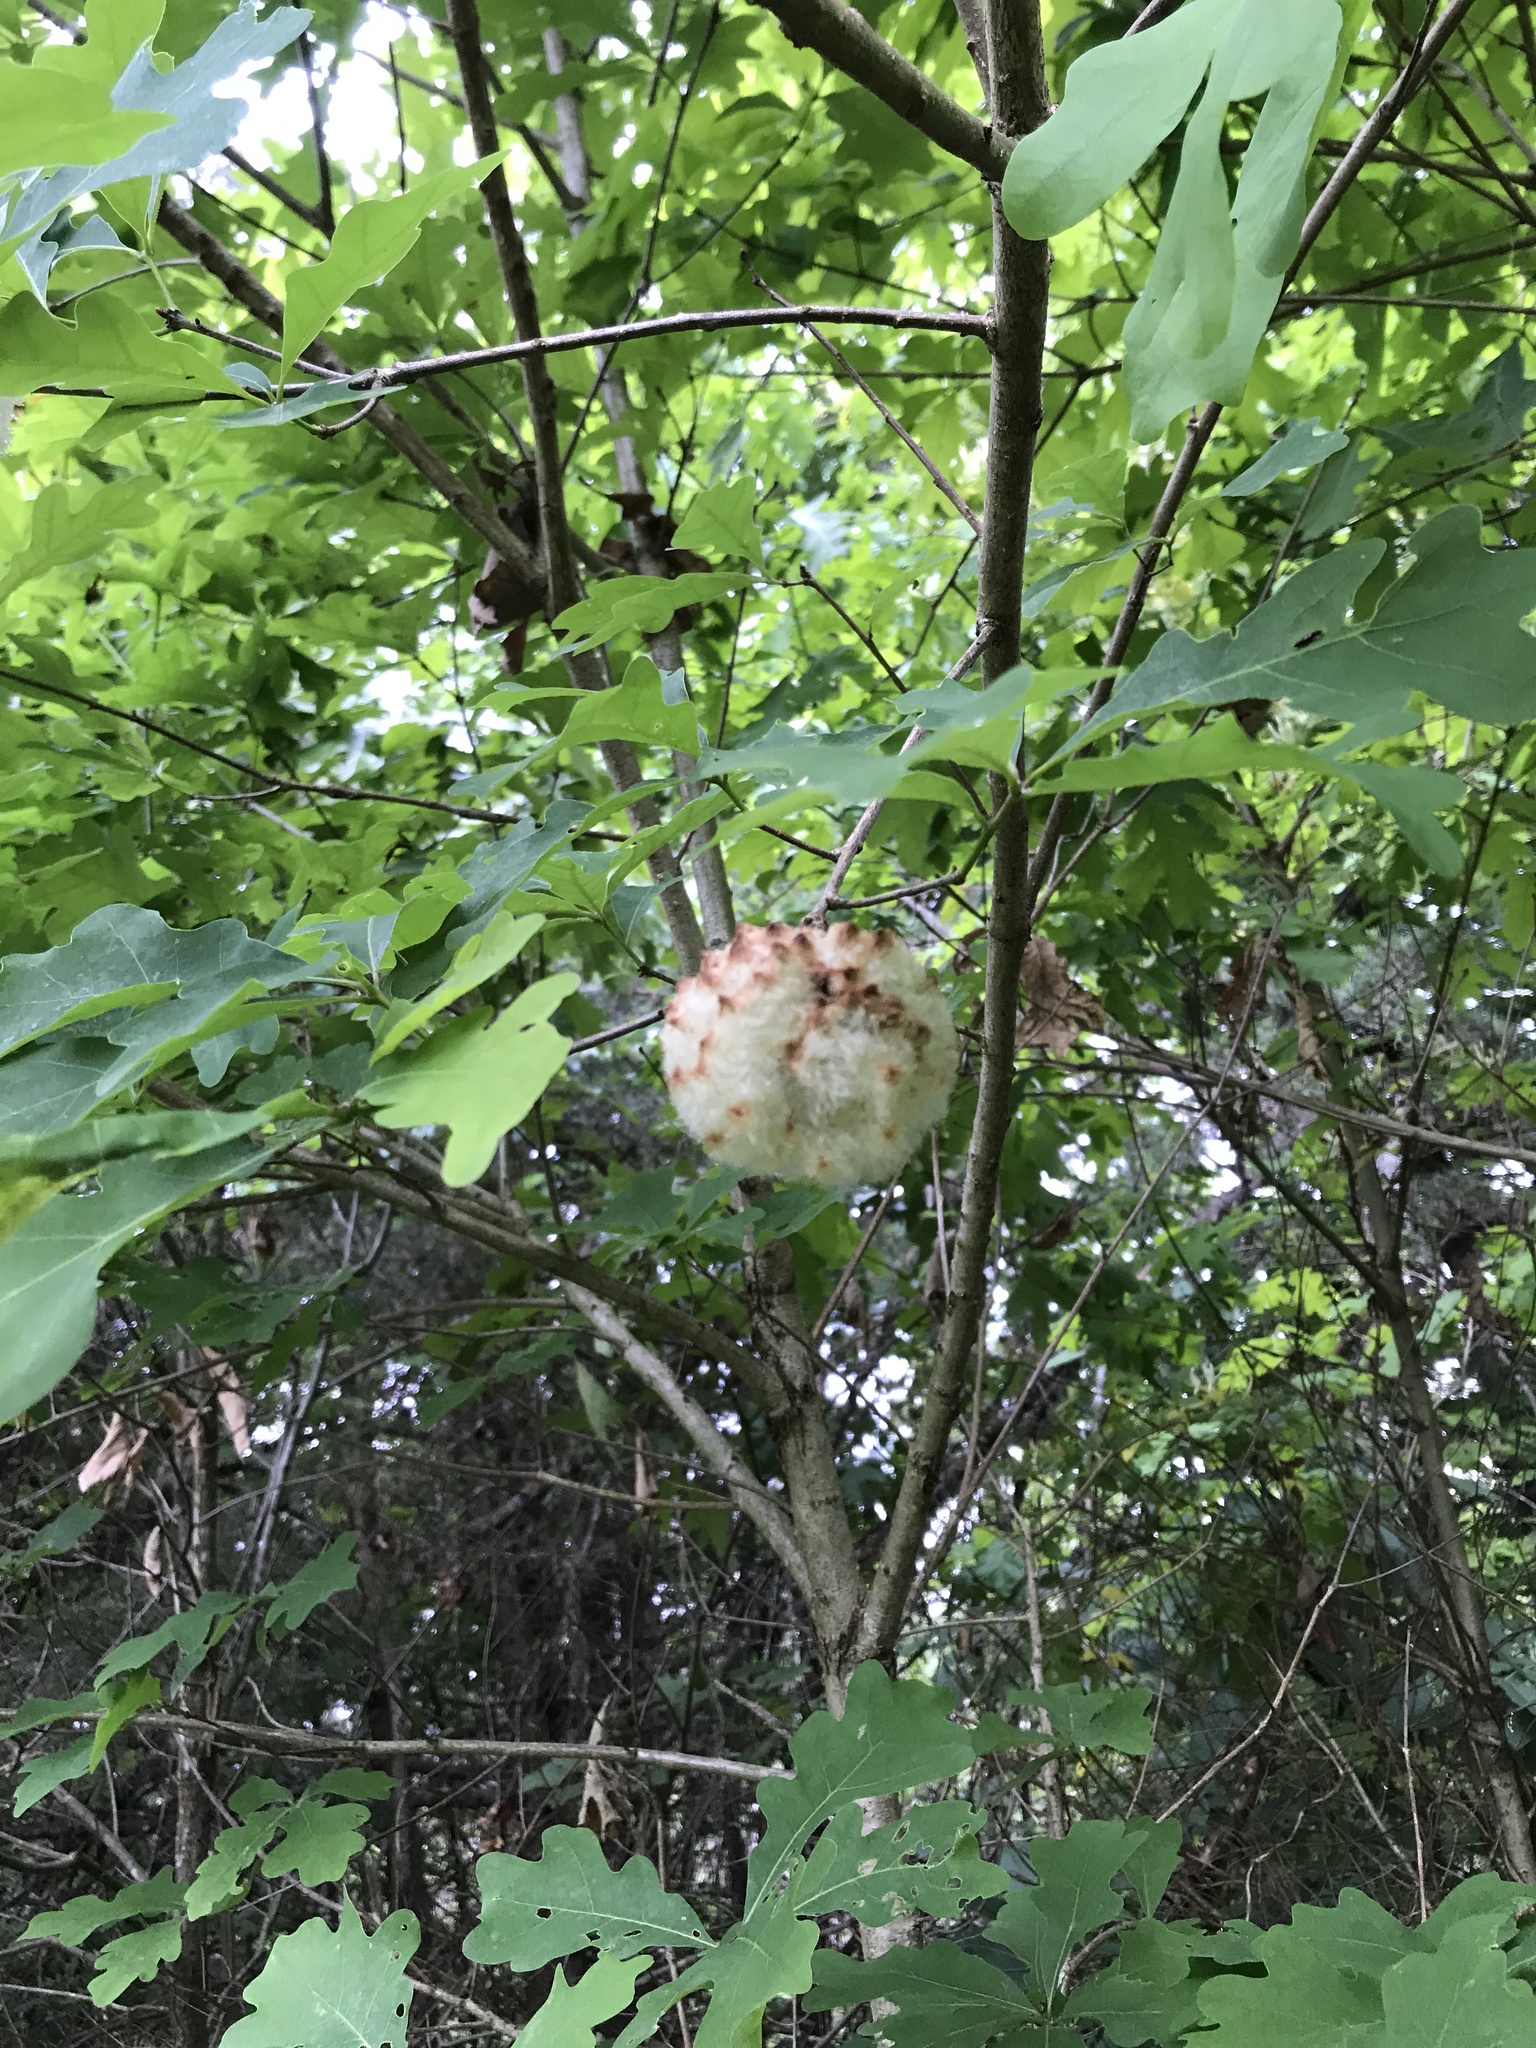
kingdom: Animalia
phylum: Arthropoda
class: Insecta
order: Hymenoptera
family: Cynipidae
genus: Callirhytis
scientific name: Callirhytis
